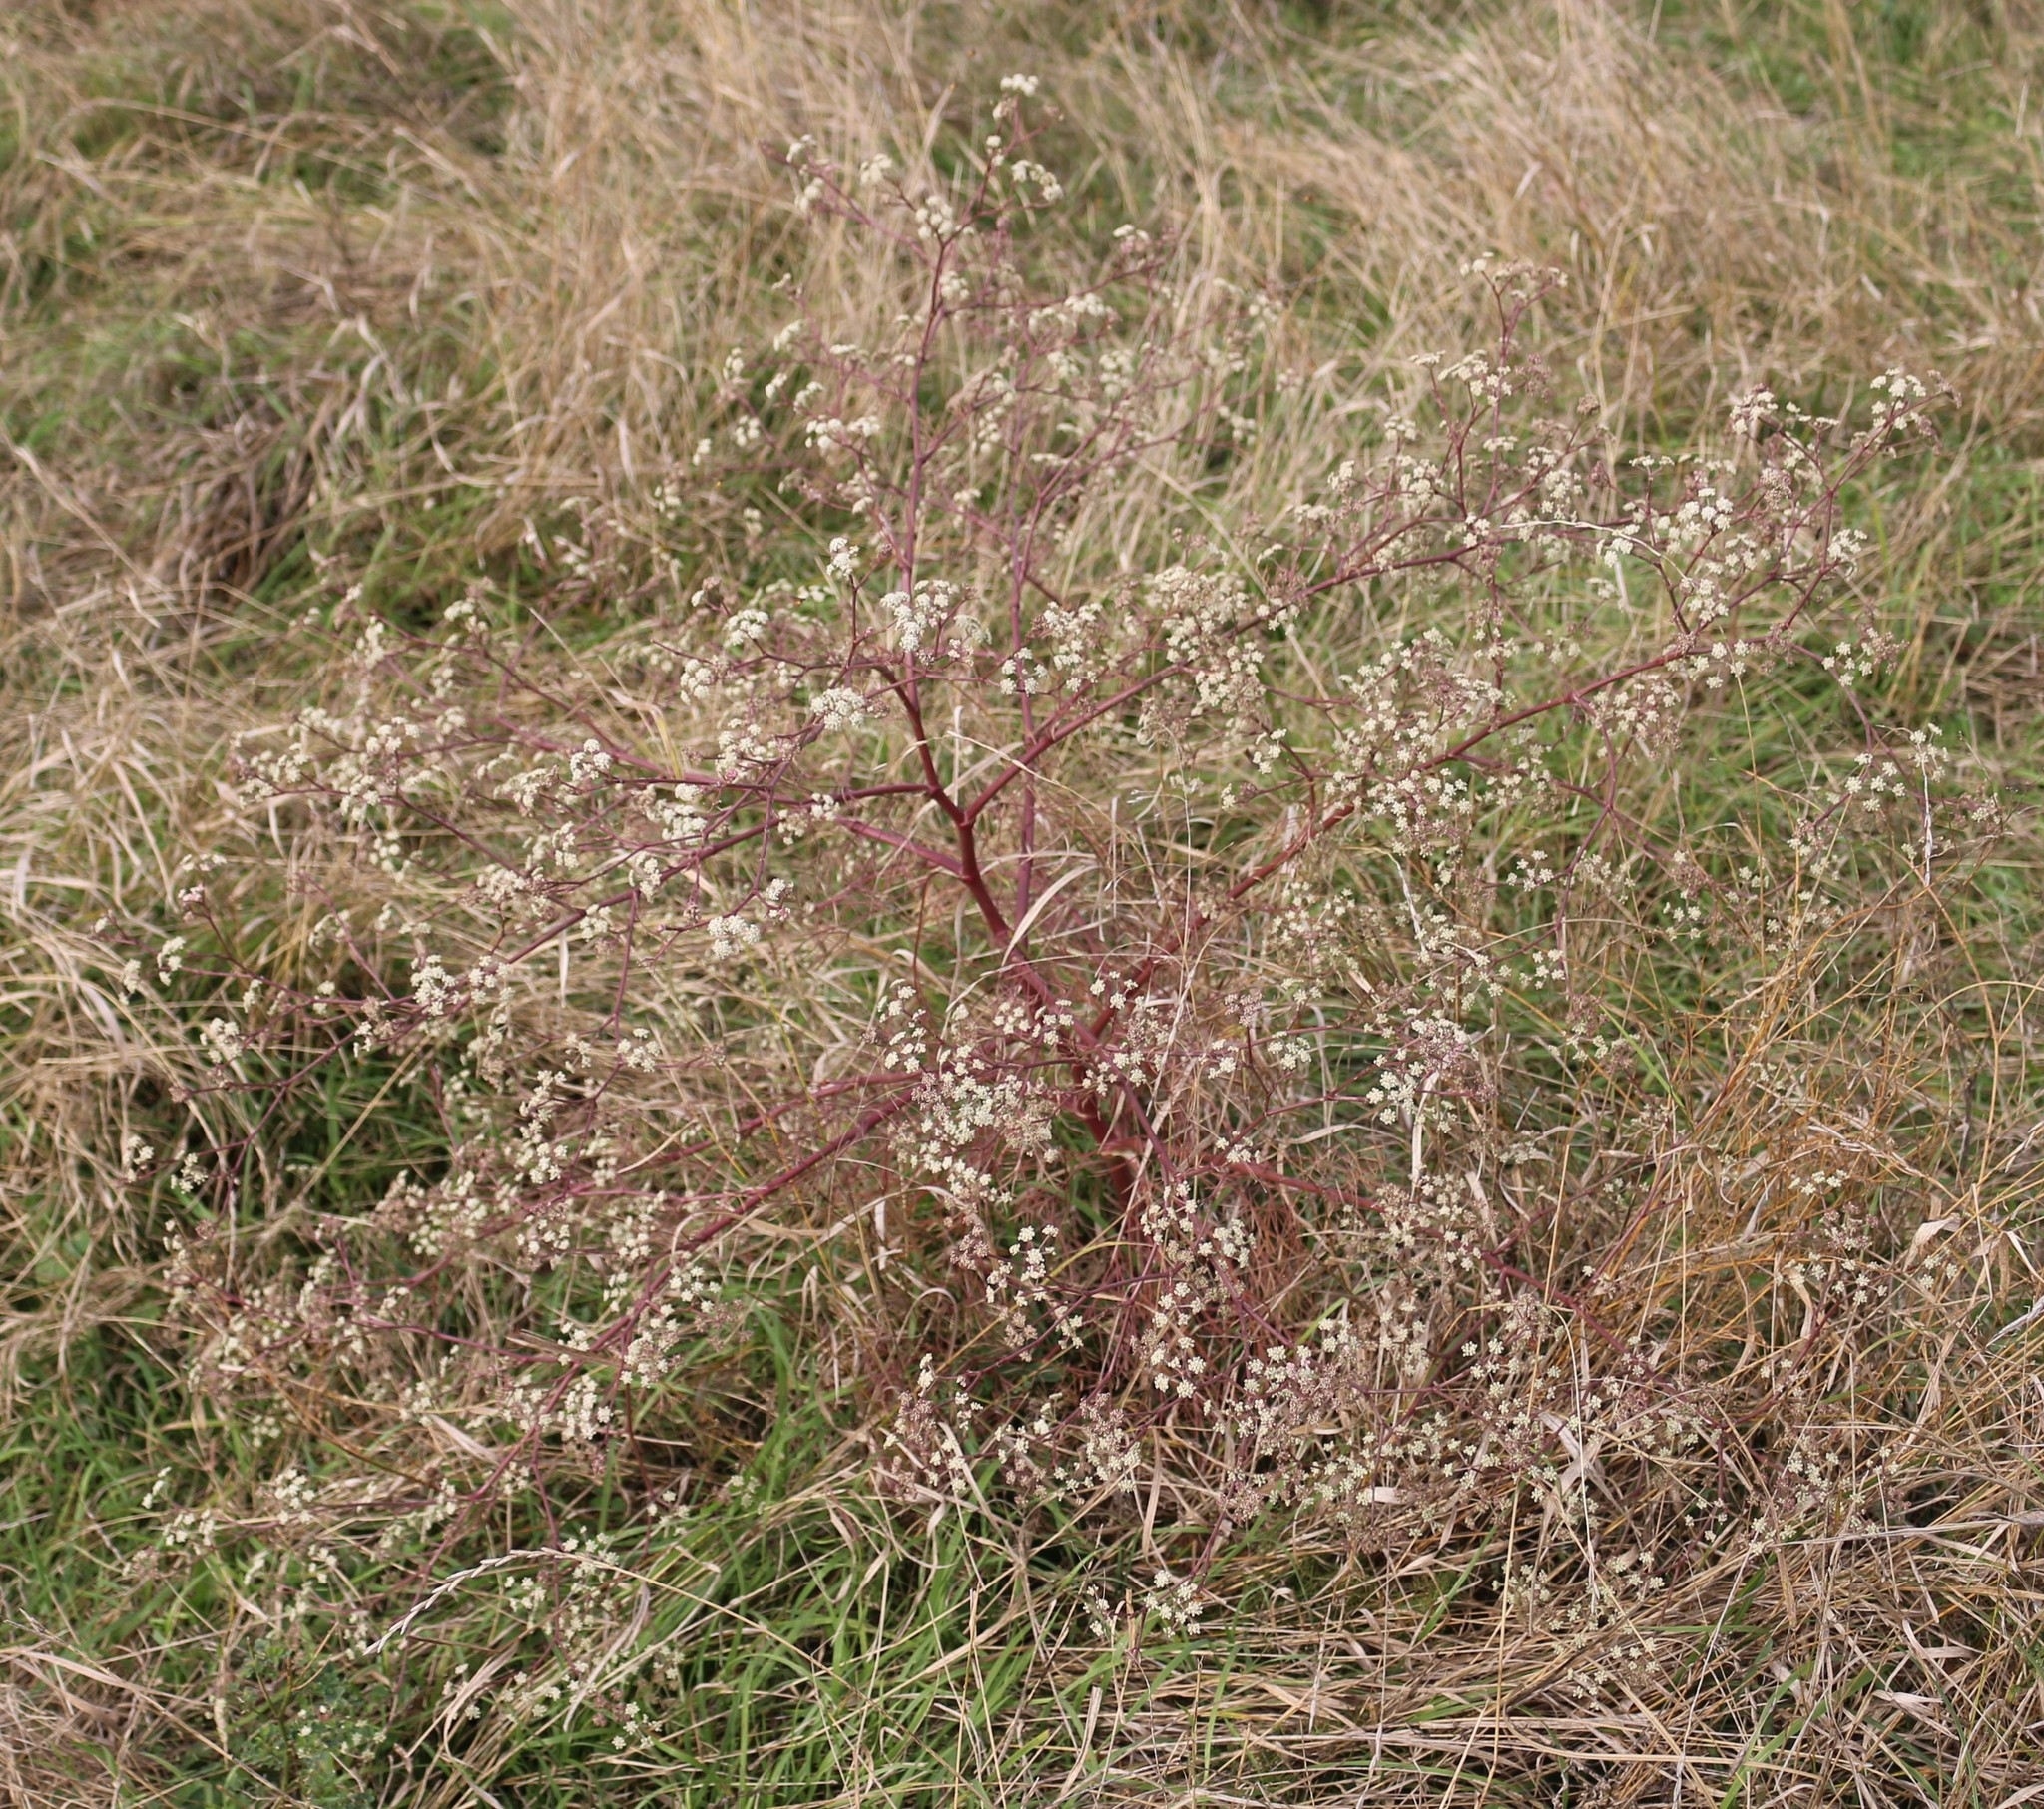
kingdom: Plantae
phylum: Tracheophyta
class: Magnoliopsida
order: Apiales
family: Apiaceae
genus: Seseli
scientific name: Seseli arenarium
